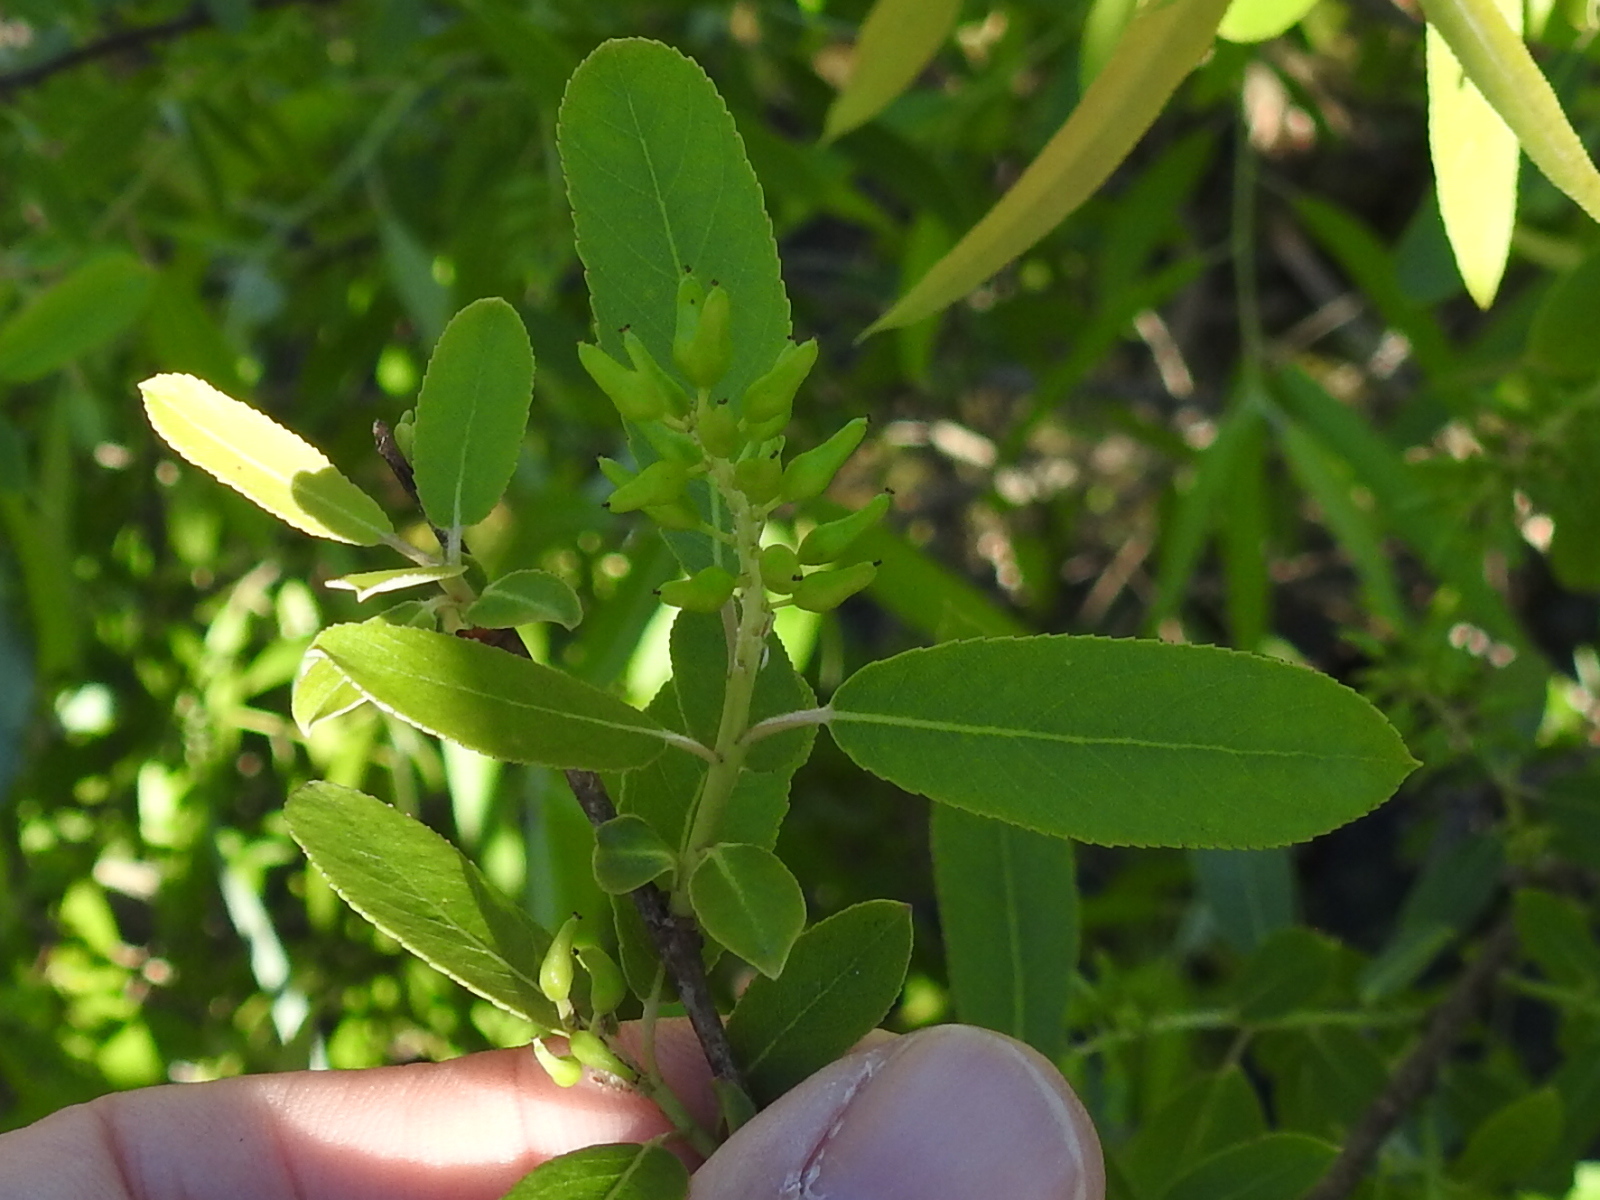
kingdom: Plantae
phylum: Tracheophyta
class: Magnoliopsida
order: Malpighiales
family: Salicaceae
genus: Salix
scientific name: Salix caroliniana
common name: Carolina willow
